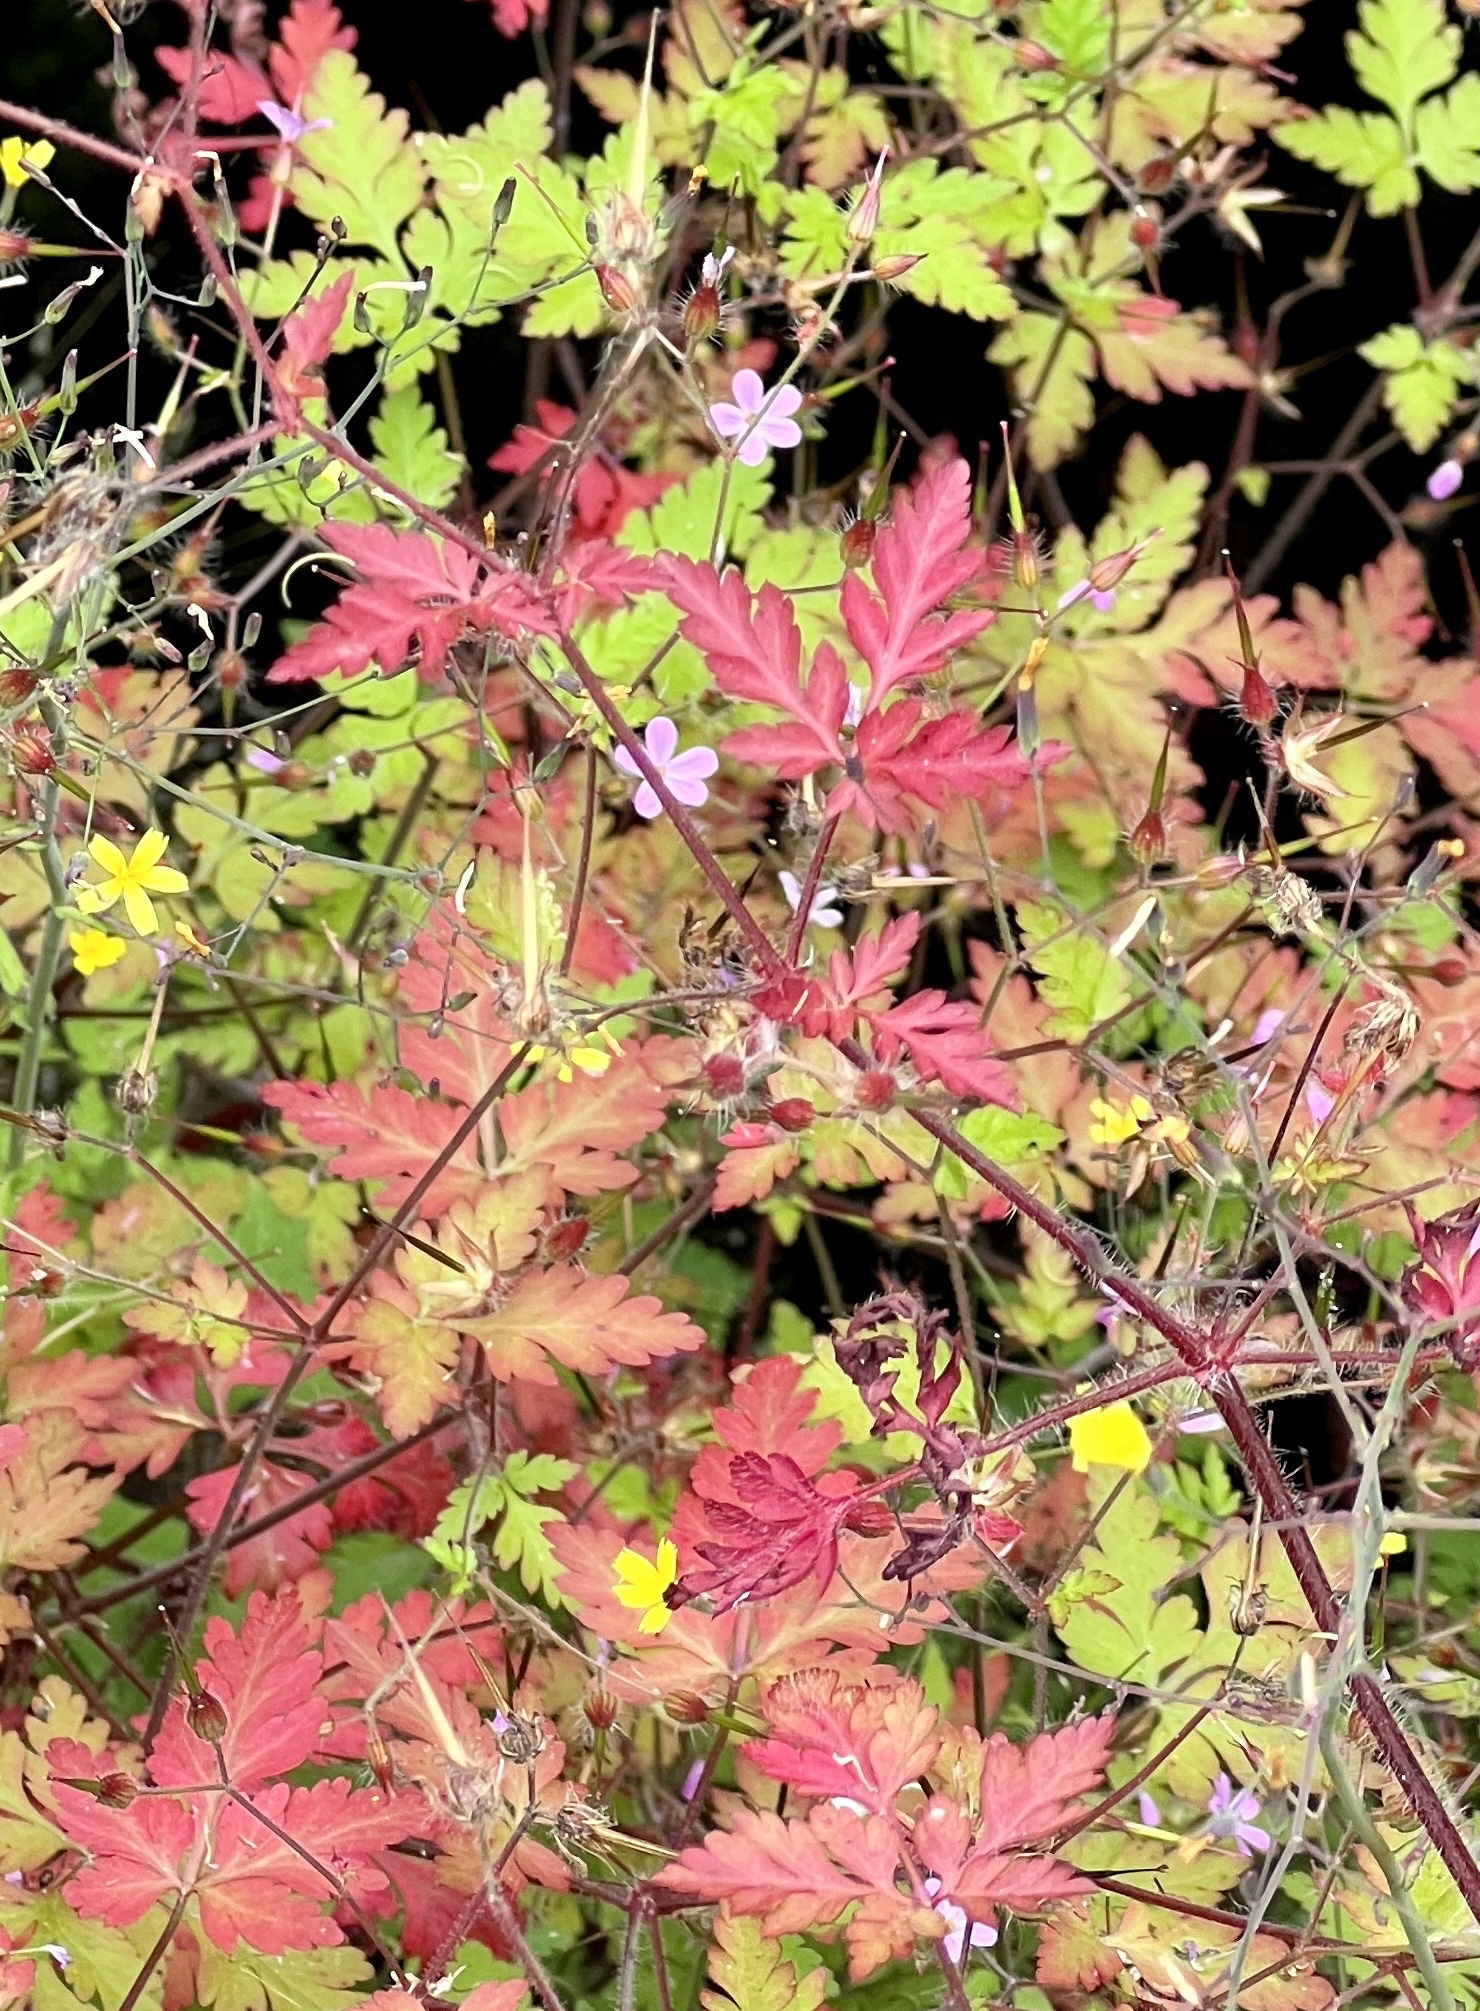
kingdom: Plantae
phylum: Tracheophyta
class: Magnoliopsida
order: Geraniales
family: Geraniaceae
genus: Geranium
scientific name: Geranium robertianum
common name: Herb-robert
